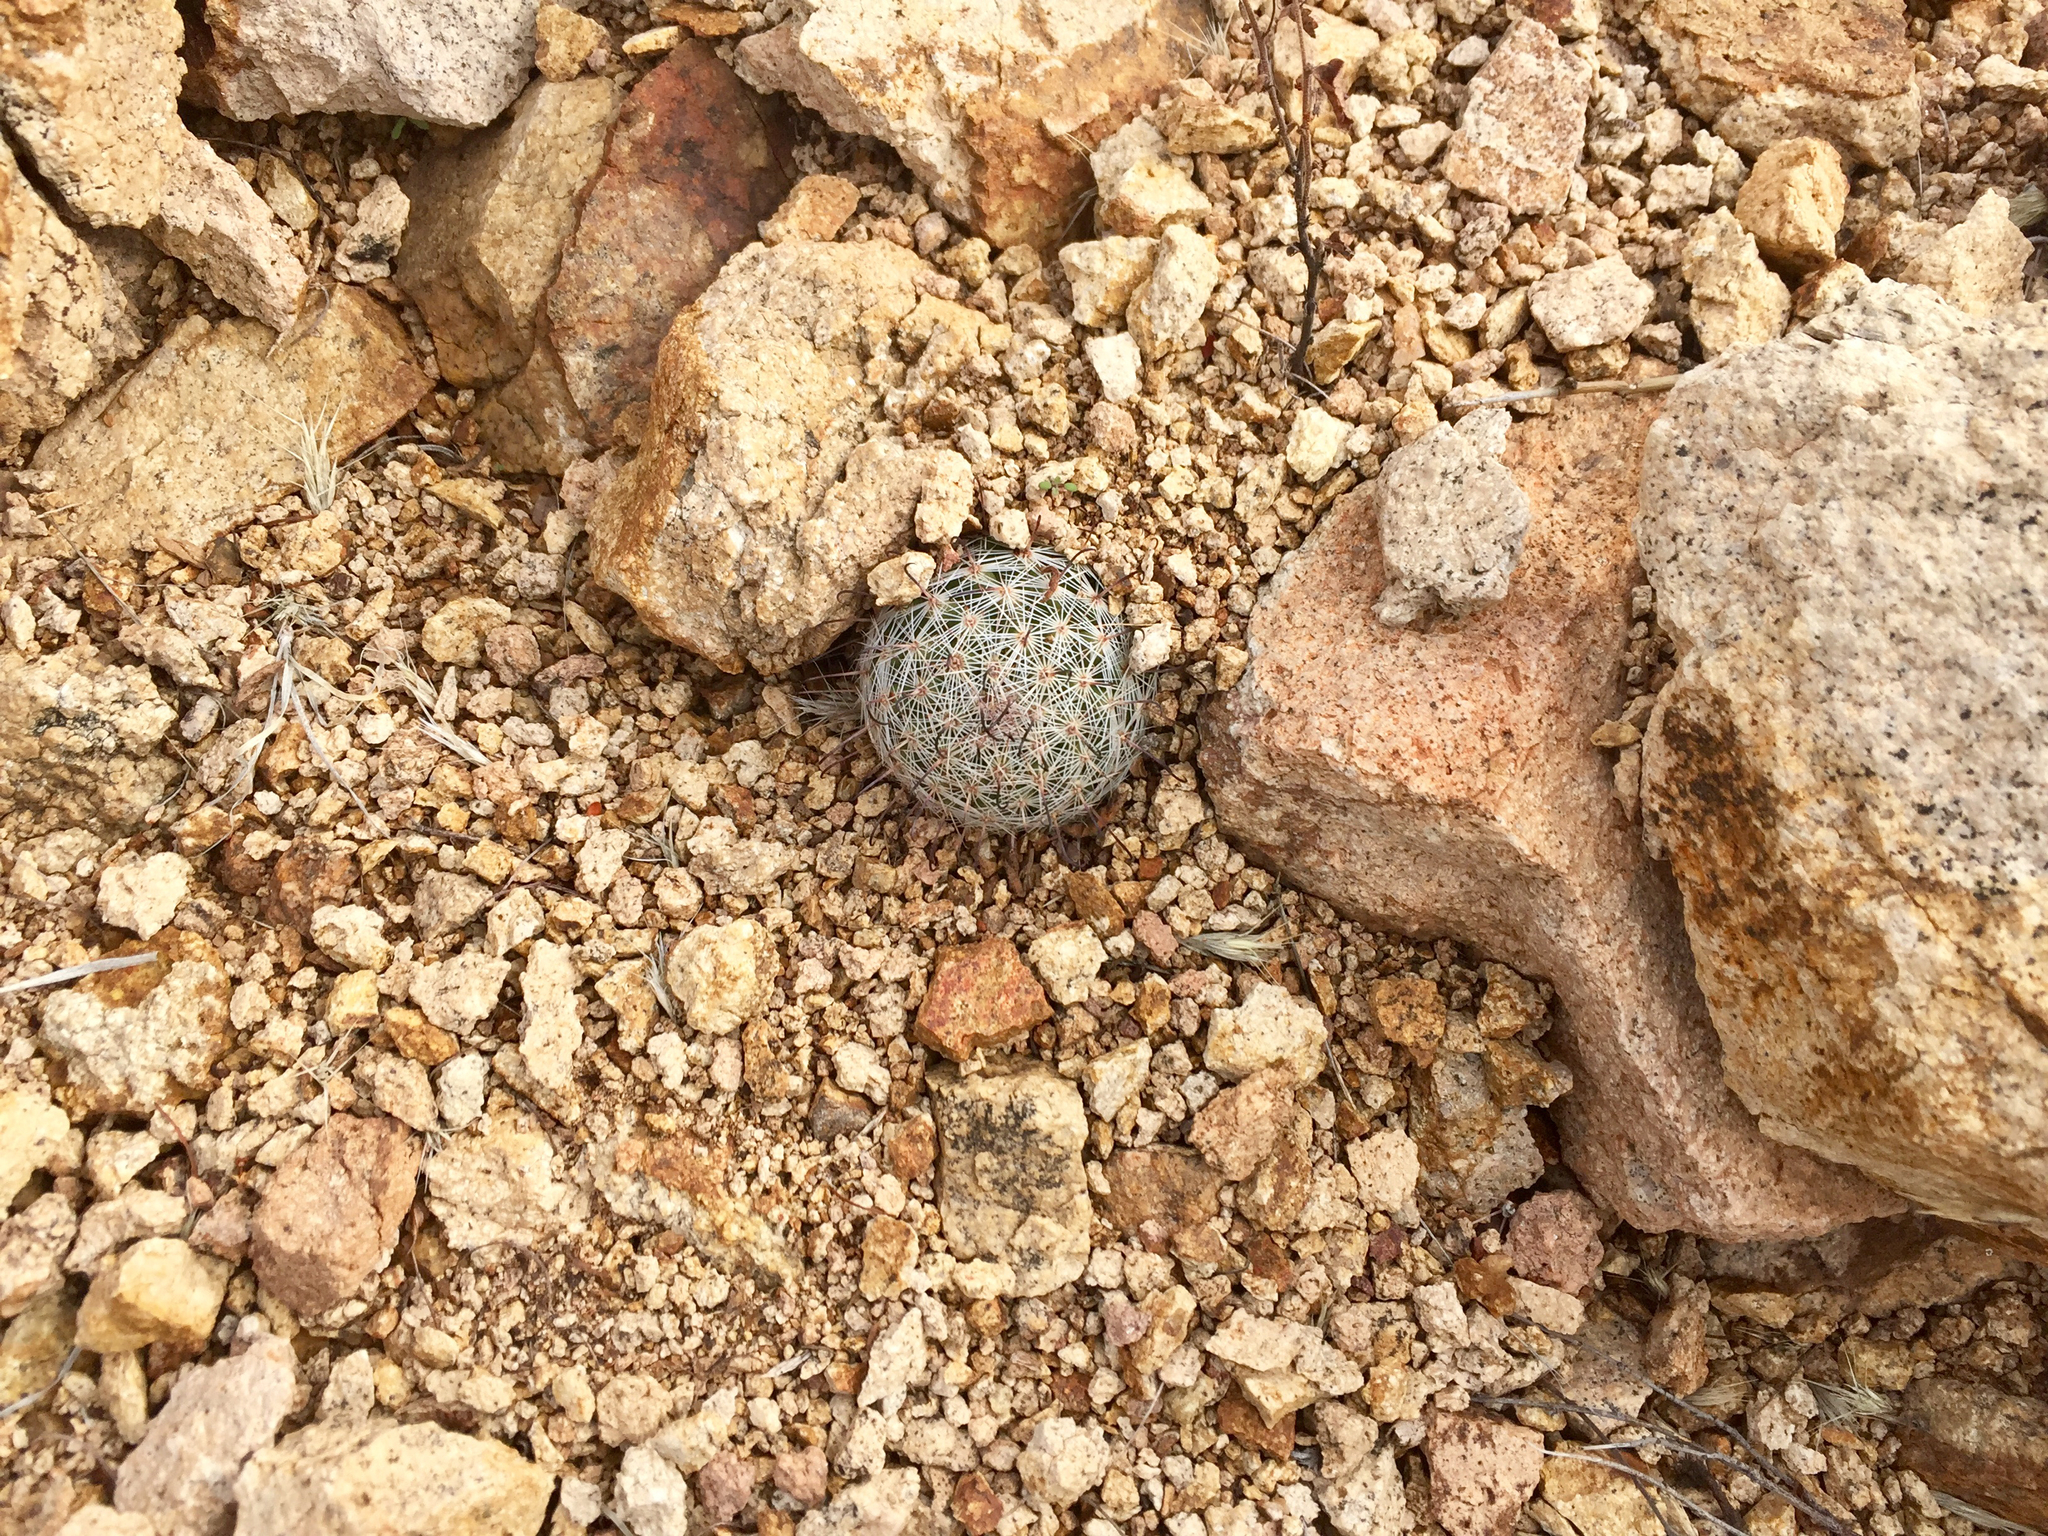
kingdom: Plantae
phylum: Tracheophyta
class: Magnoliopsida
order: Caryophyllales
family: Cactaceae
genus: Cochemiea
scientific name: Cochemiea grahamii
